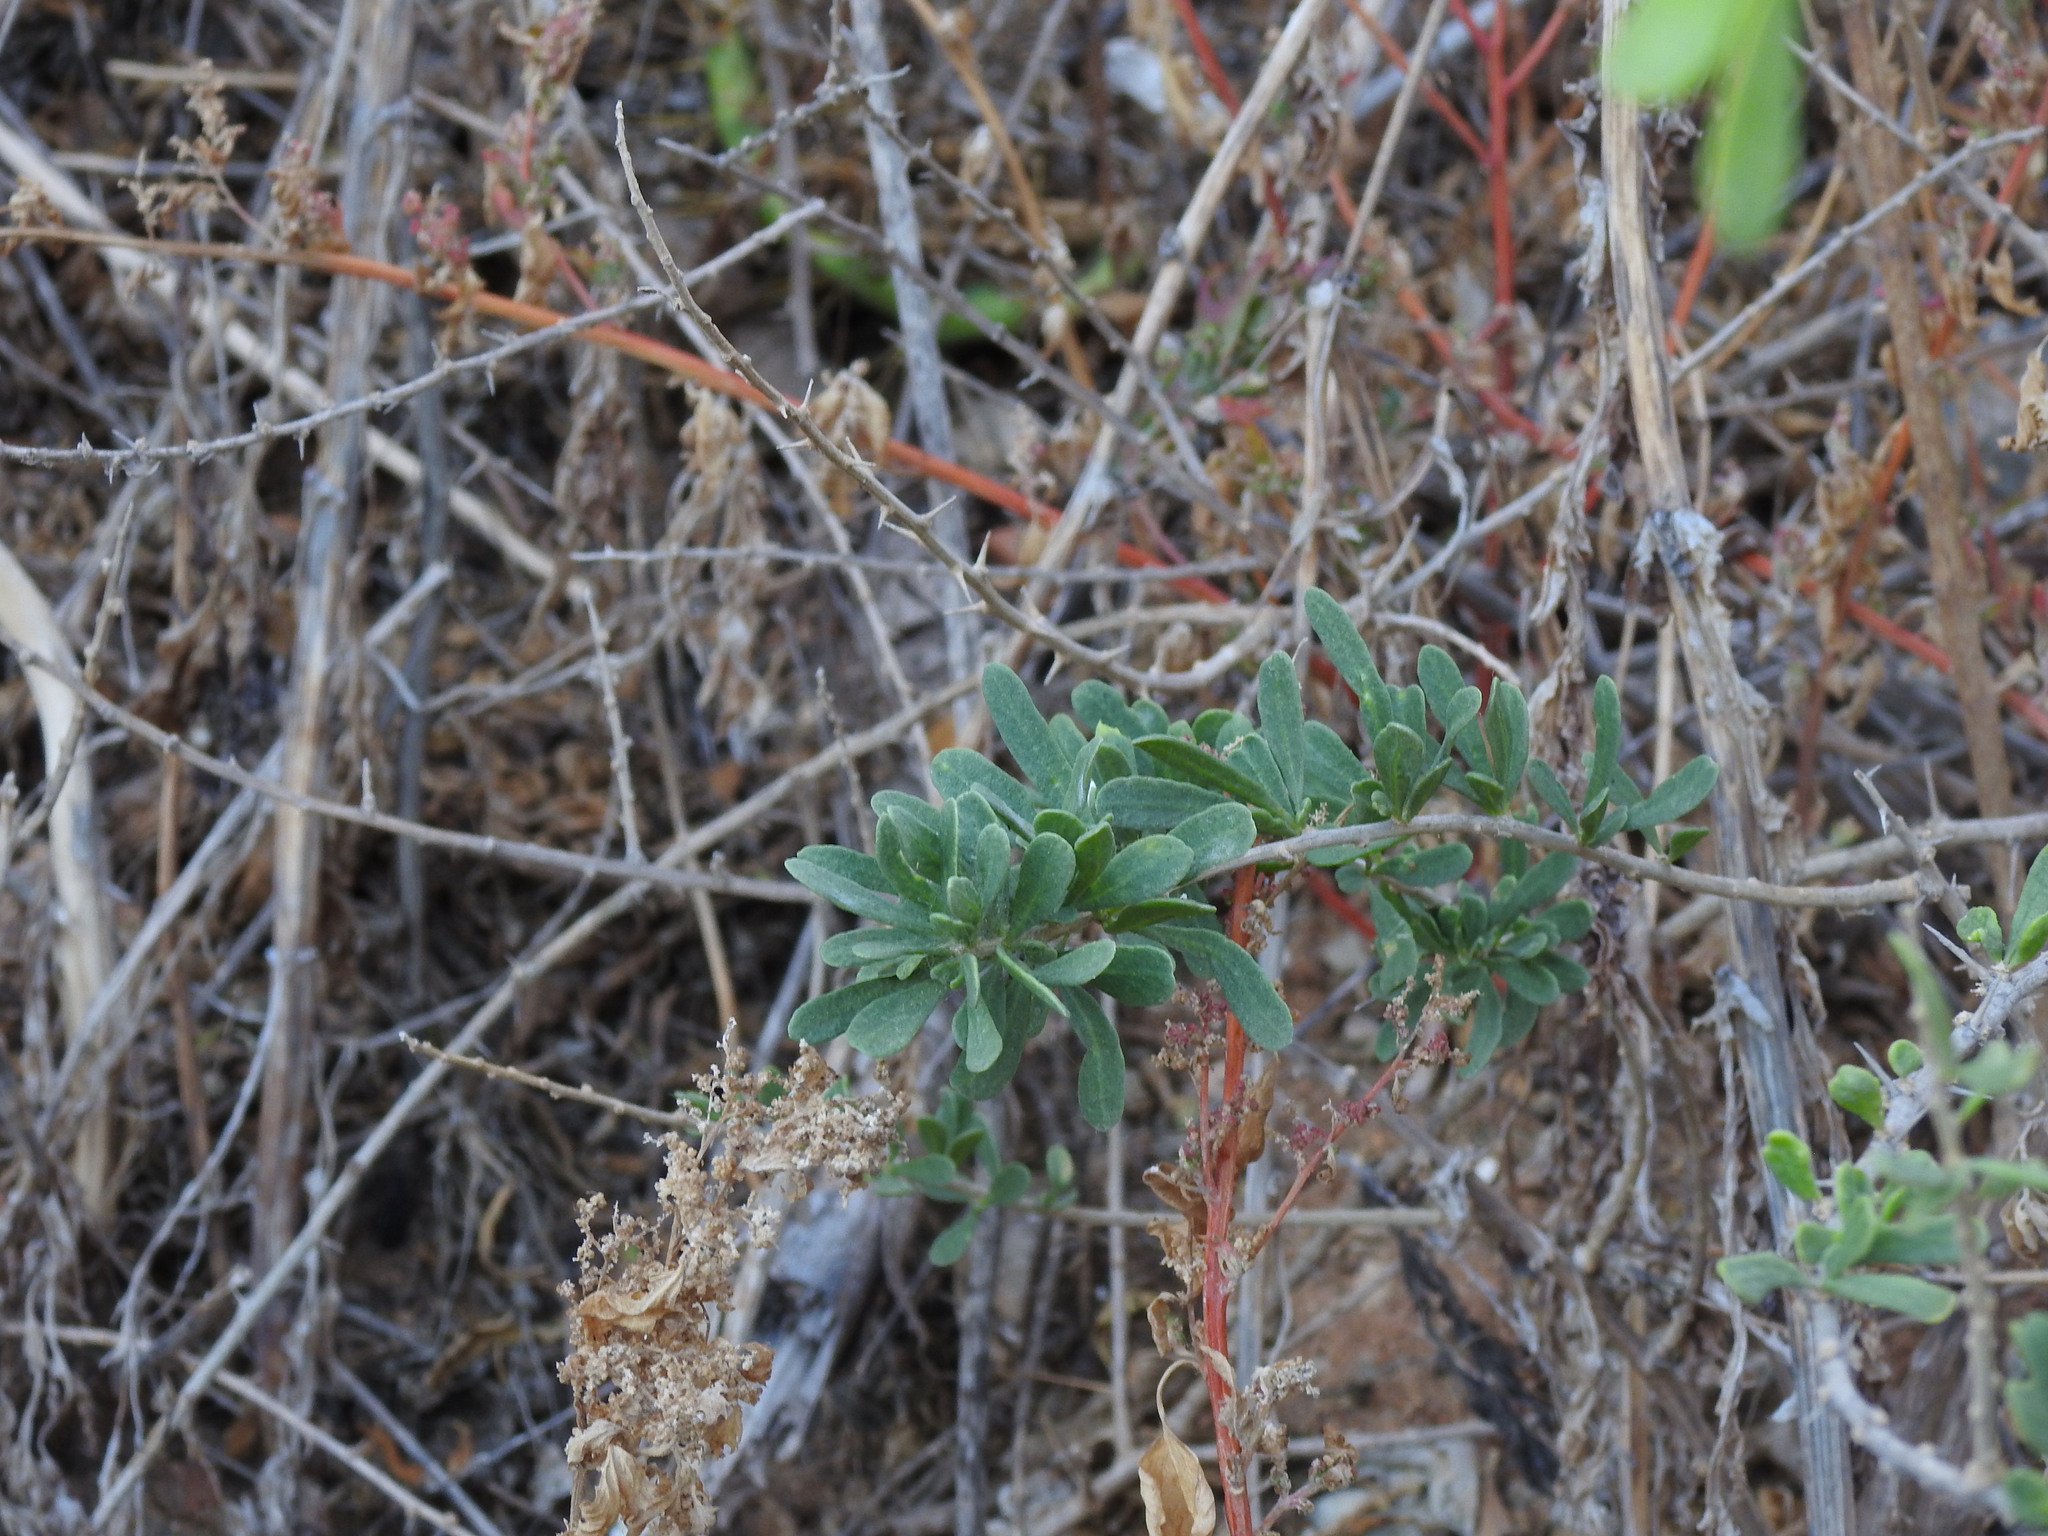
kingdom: Plantae
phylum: Tracheophyta
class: Magnoliopsida
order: Solanales
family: Solanaceae
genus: Lycium
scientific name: Lycium europaeum
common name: Boxthorn
